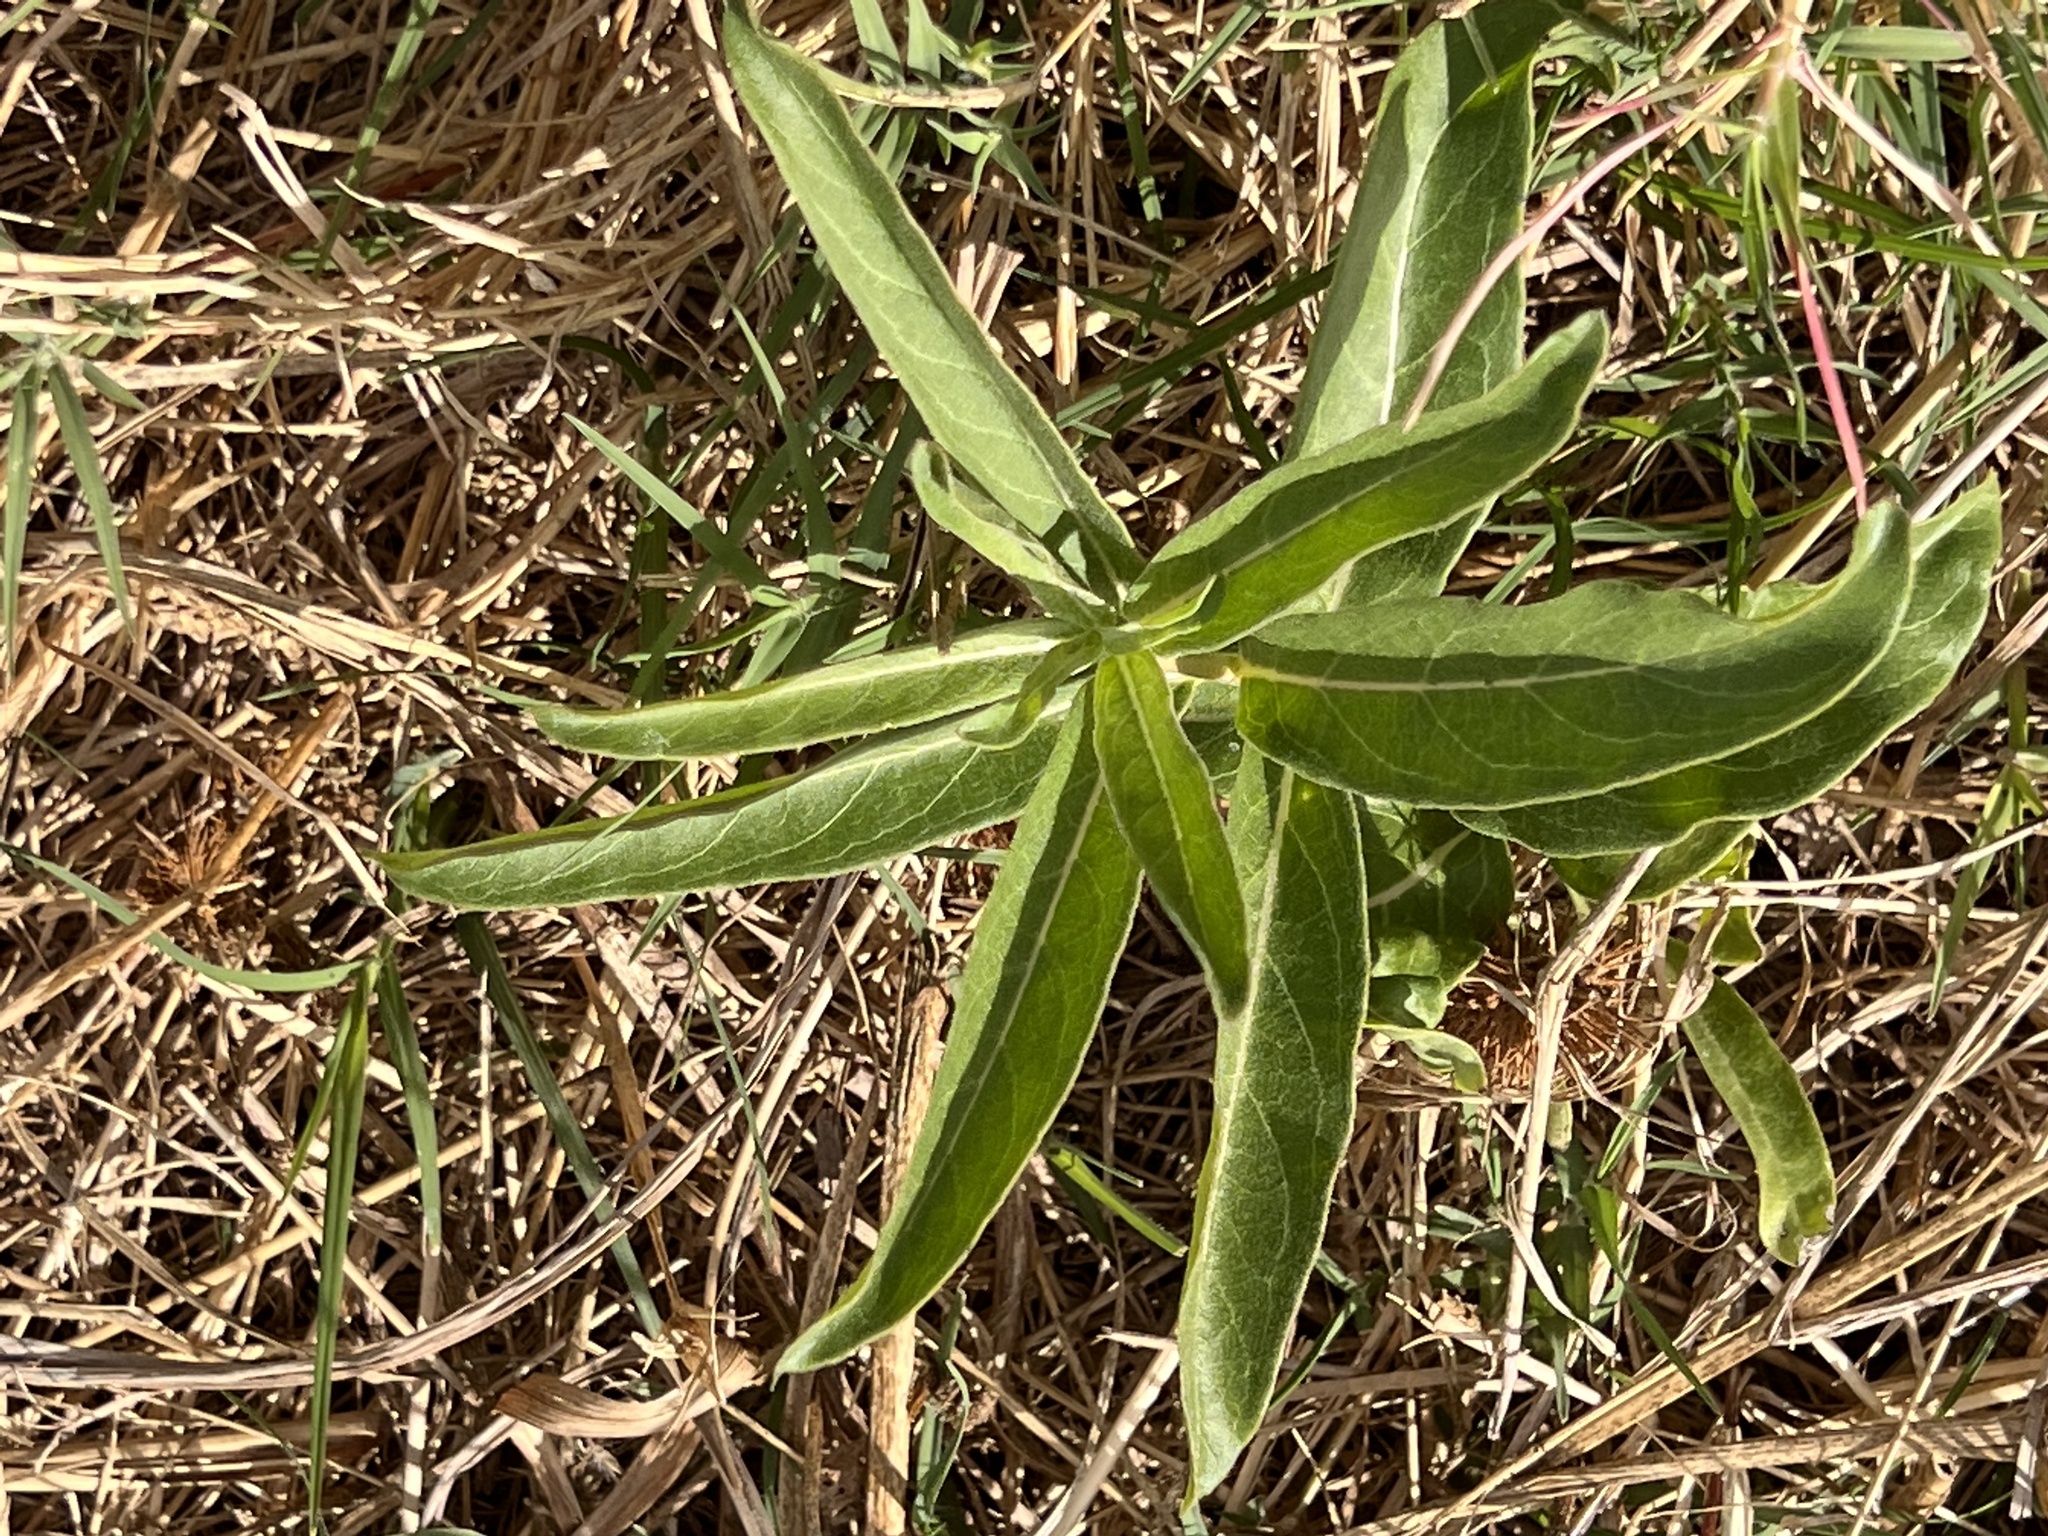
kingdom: Plantae
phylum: Tracheophyta
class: Magnoliopsida
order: Gentianales
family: Apocynaceae
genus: Asclepias
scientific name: Asclepias viridis
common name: Antelope-horns
